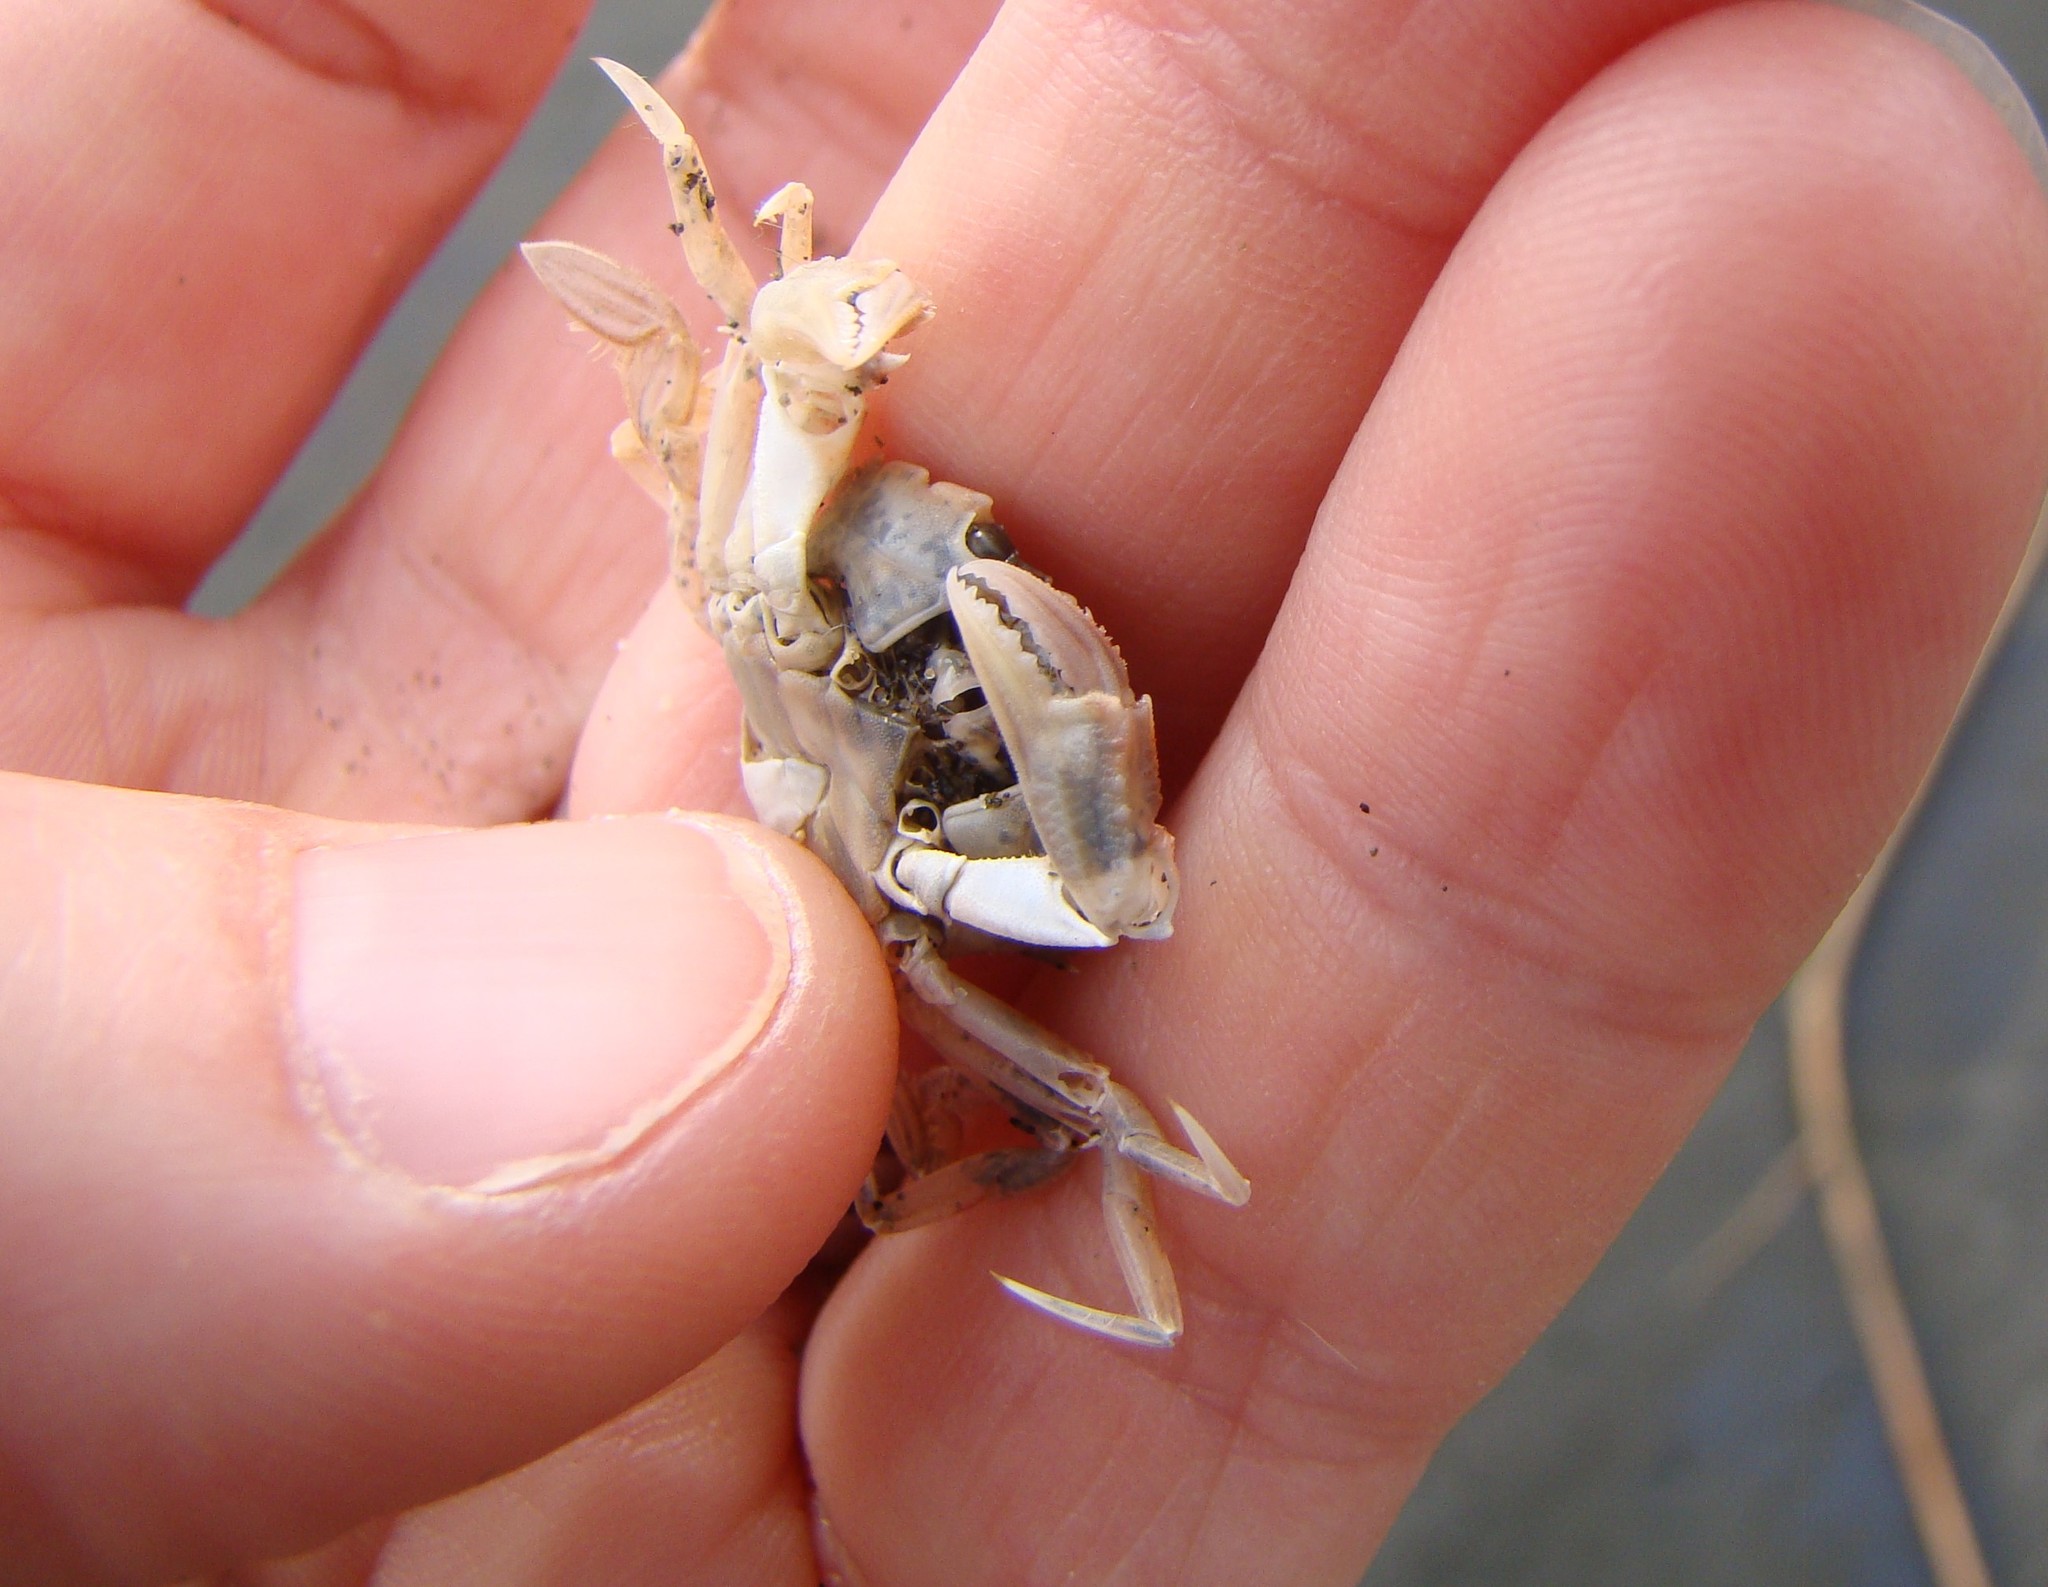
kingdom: Animalia
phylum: Arthropoda
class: Malacostraca
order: Decapoda
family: Geryonidae
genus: Nectocarcinus
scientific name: Nectocarcinus antarcticus
